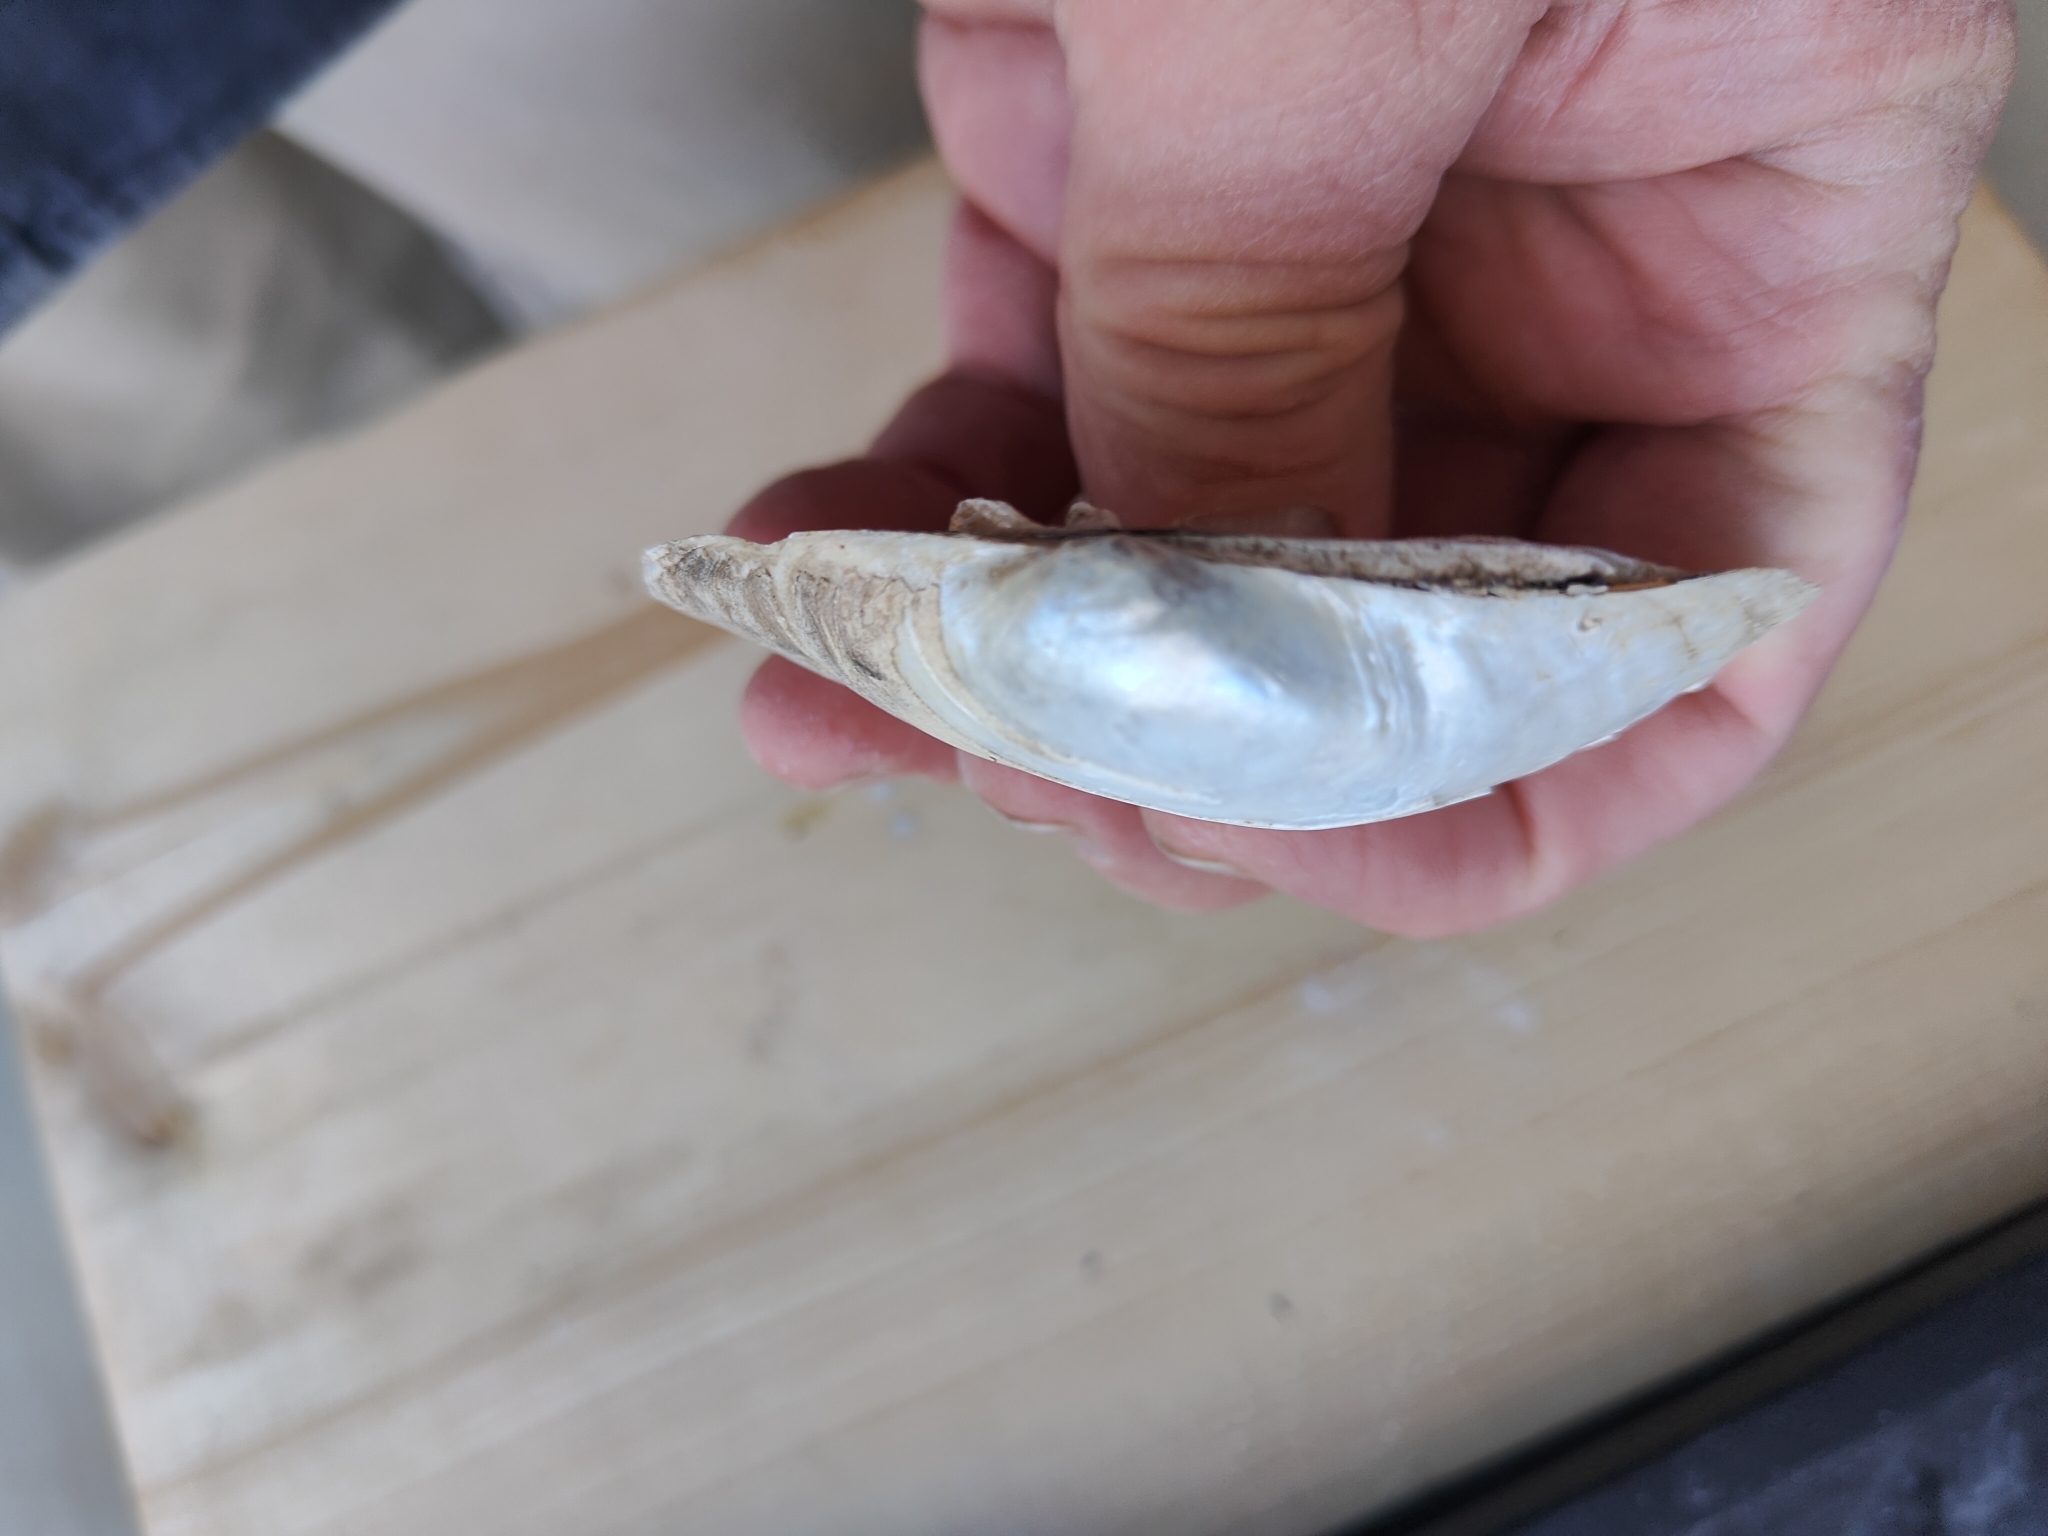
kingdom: Animalia
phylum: Mollusca
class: Bivalvia
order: Unionida
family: Unionidae
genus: Lampsilis
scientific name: Lampsilis cardium
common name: Plain pocketbook
